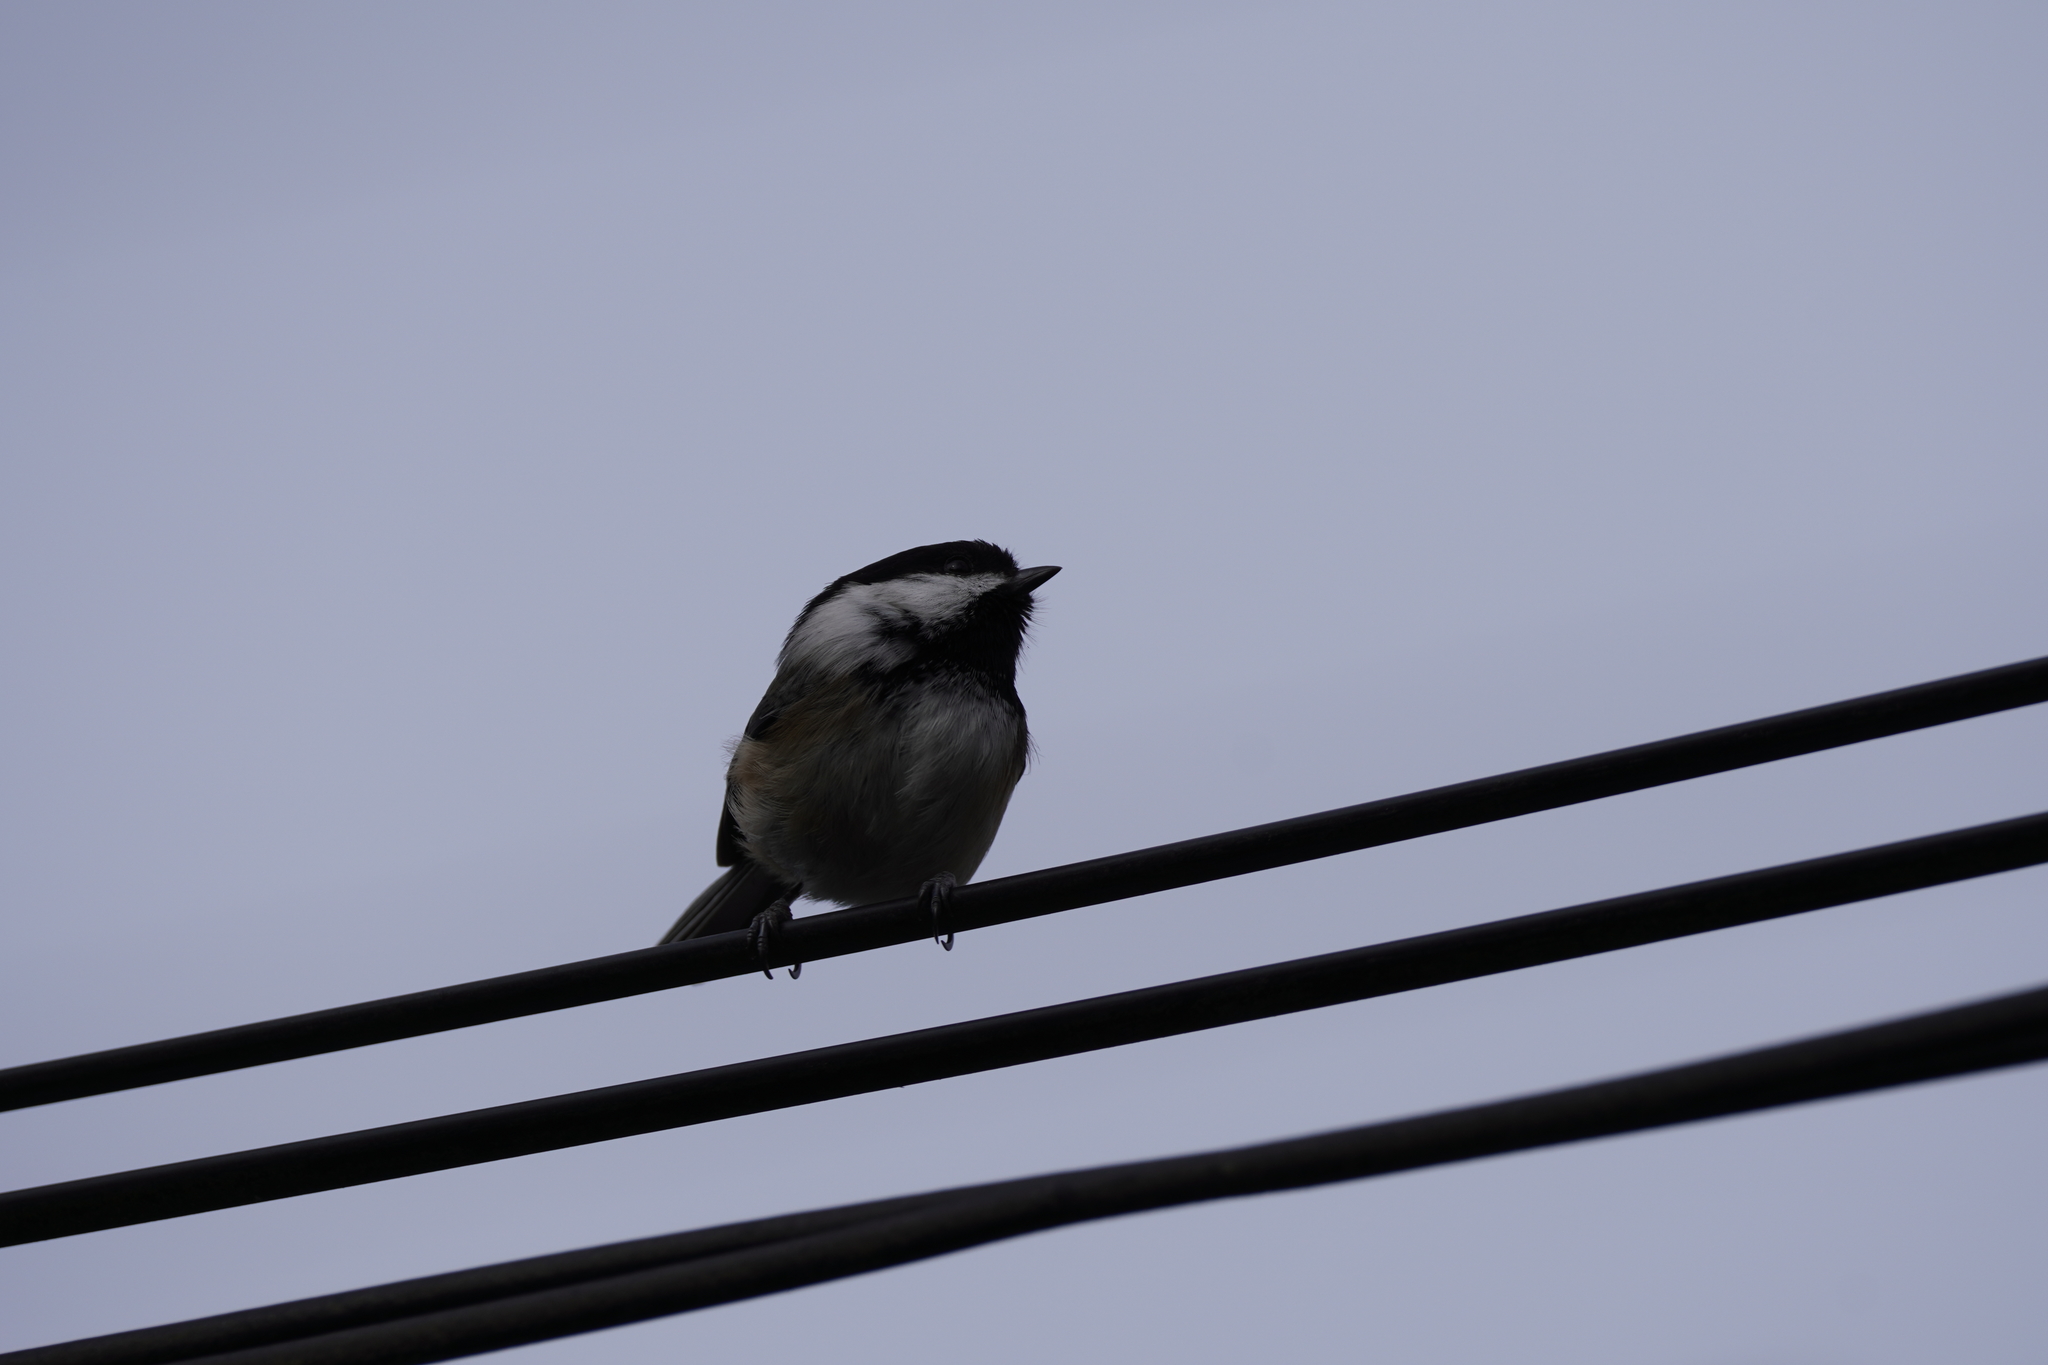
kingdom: Animalia
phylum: Chordata
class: Aves
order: Passeriformes
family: Paridae
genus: Poecile
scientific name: Poecile atricapillus
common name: Black-capped chickadee
